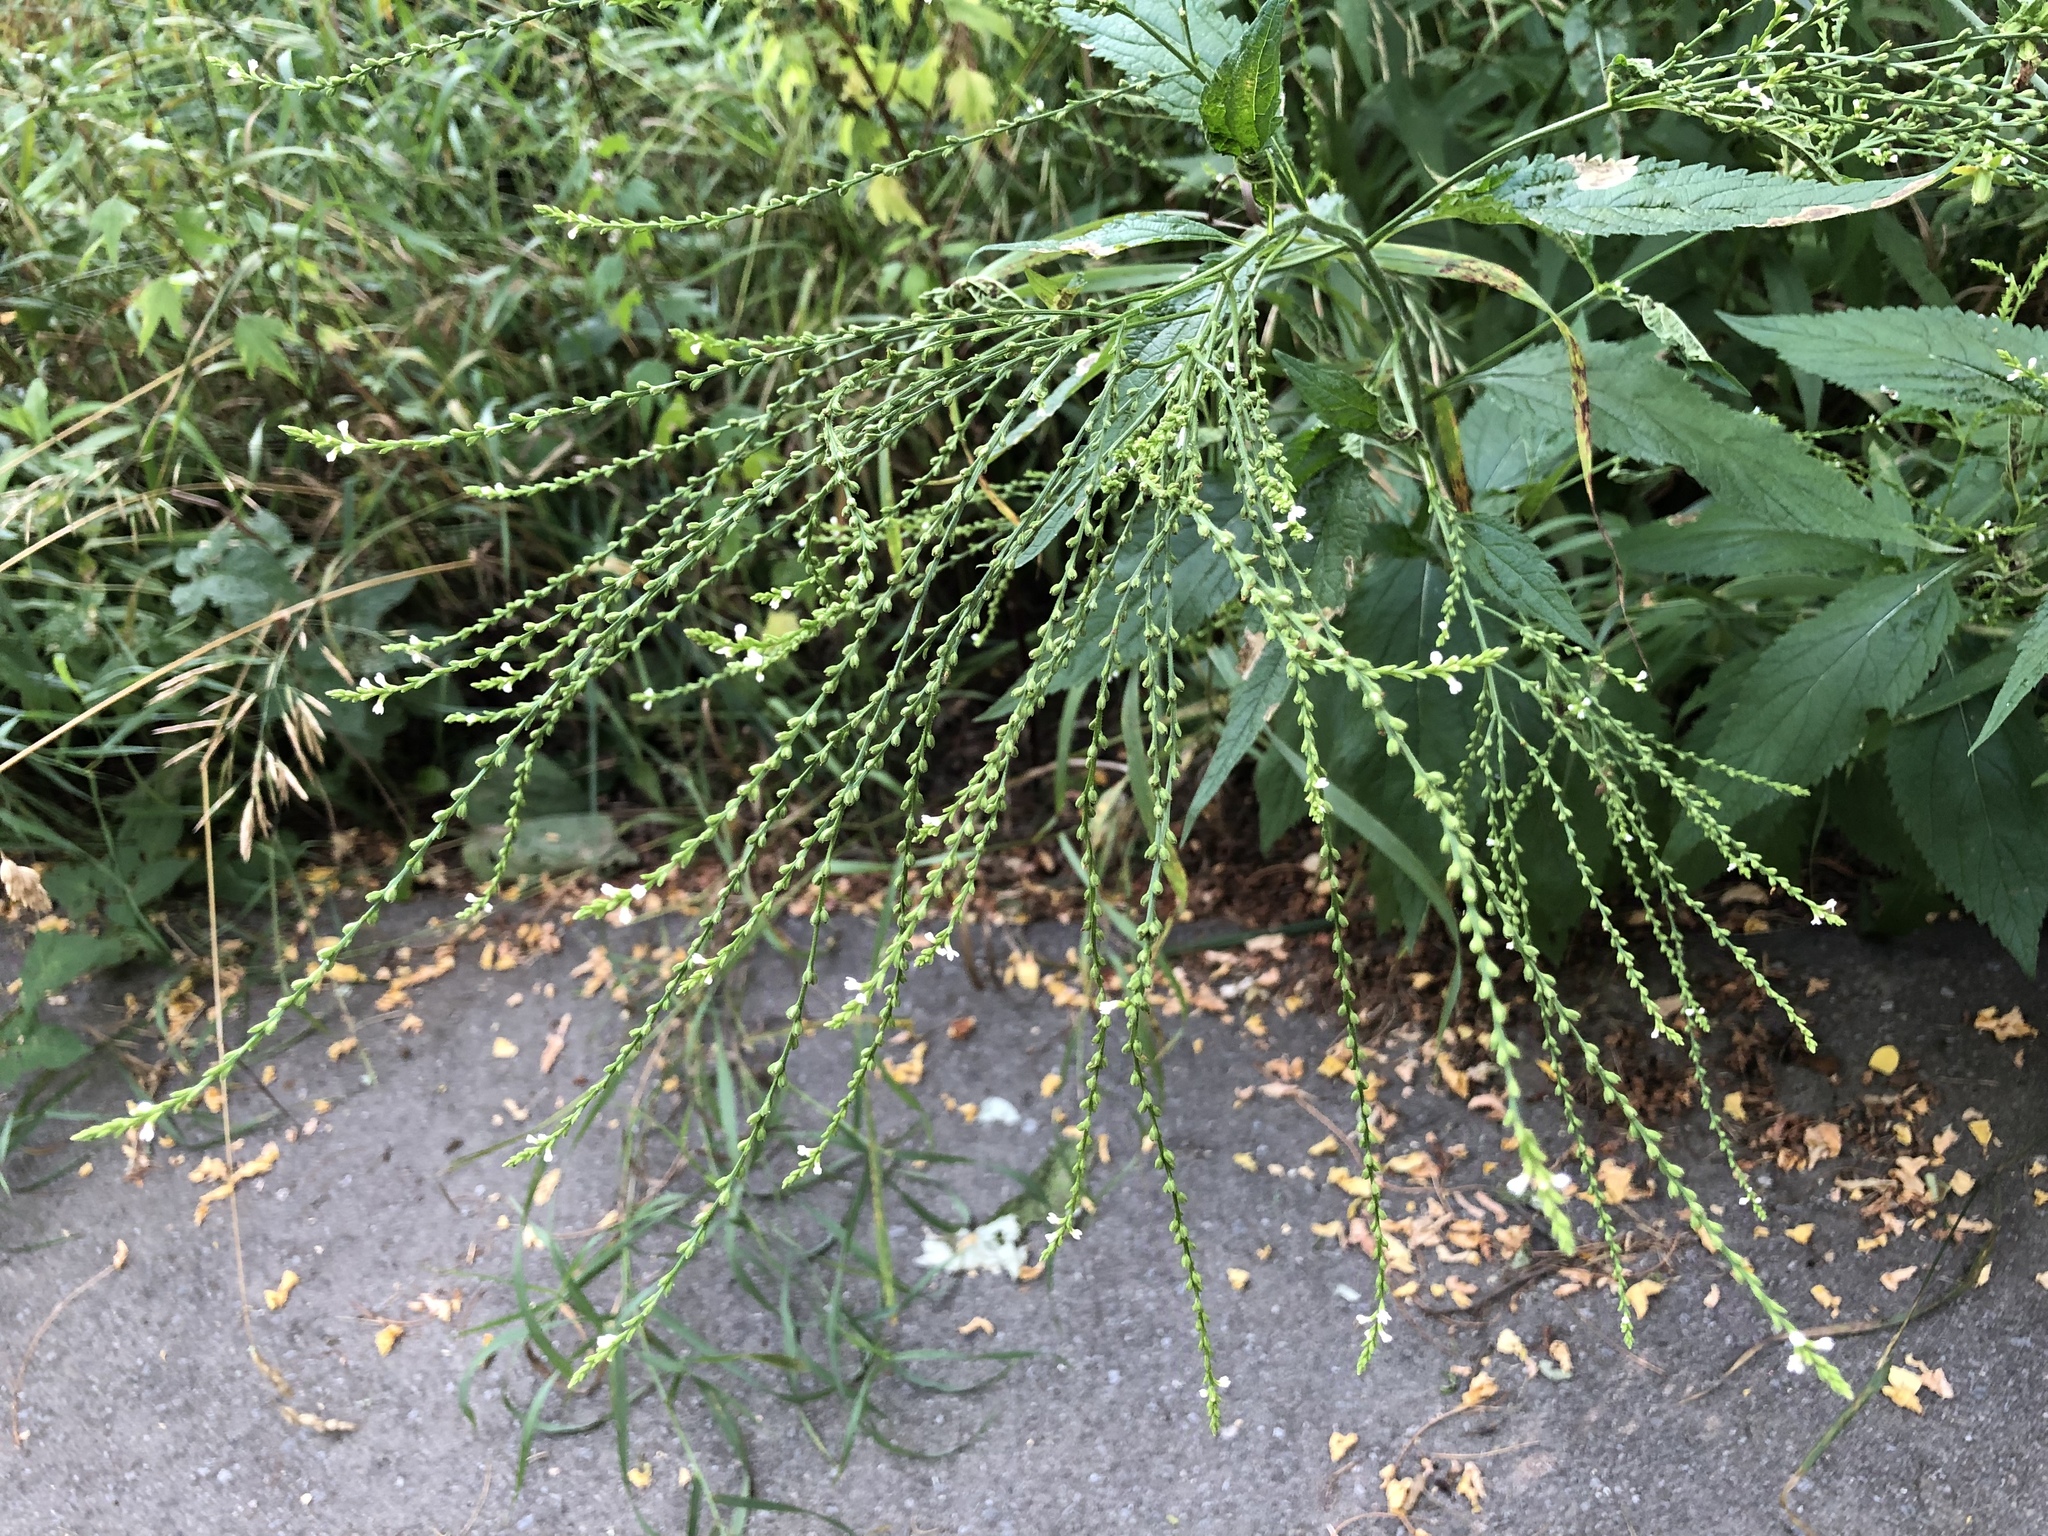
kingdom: Plantae
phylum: Tracheophyta
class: Magnoliopsida
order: Lamiales
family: Verbenaceae
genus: Verbena
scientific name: Verbena urticifolia
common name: Nettle-leaved vervain
